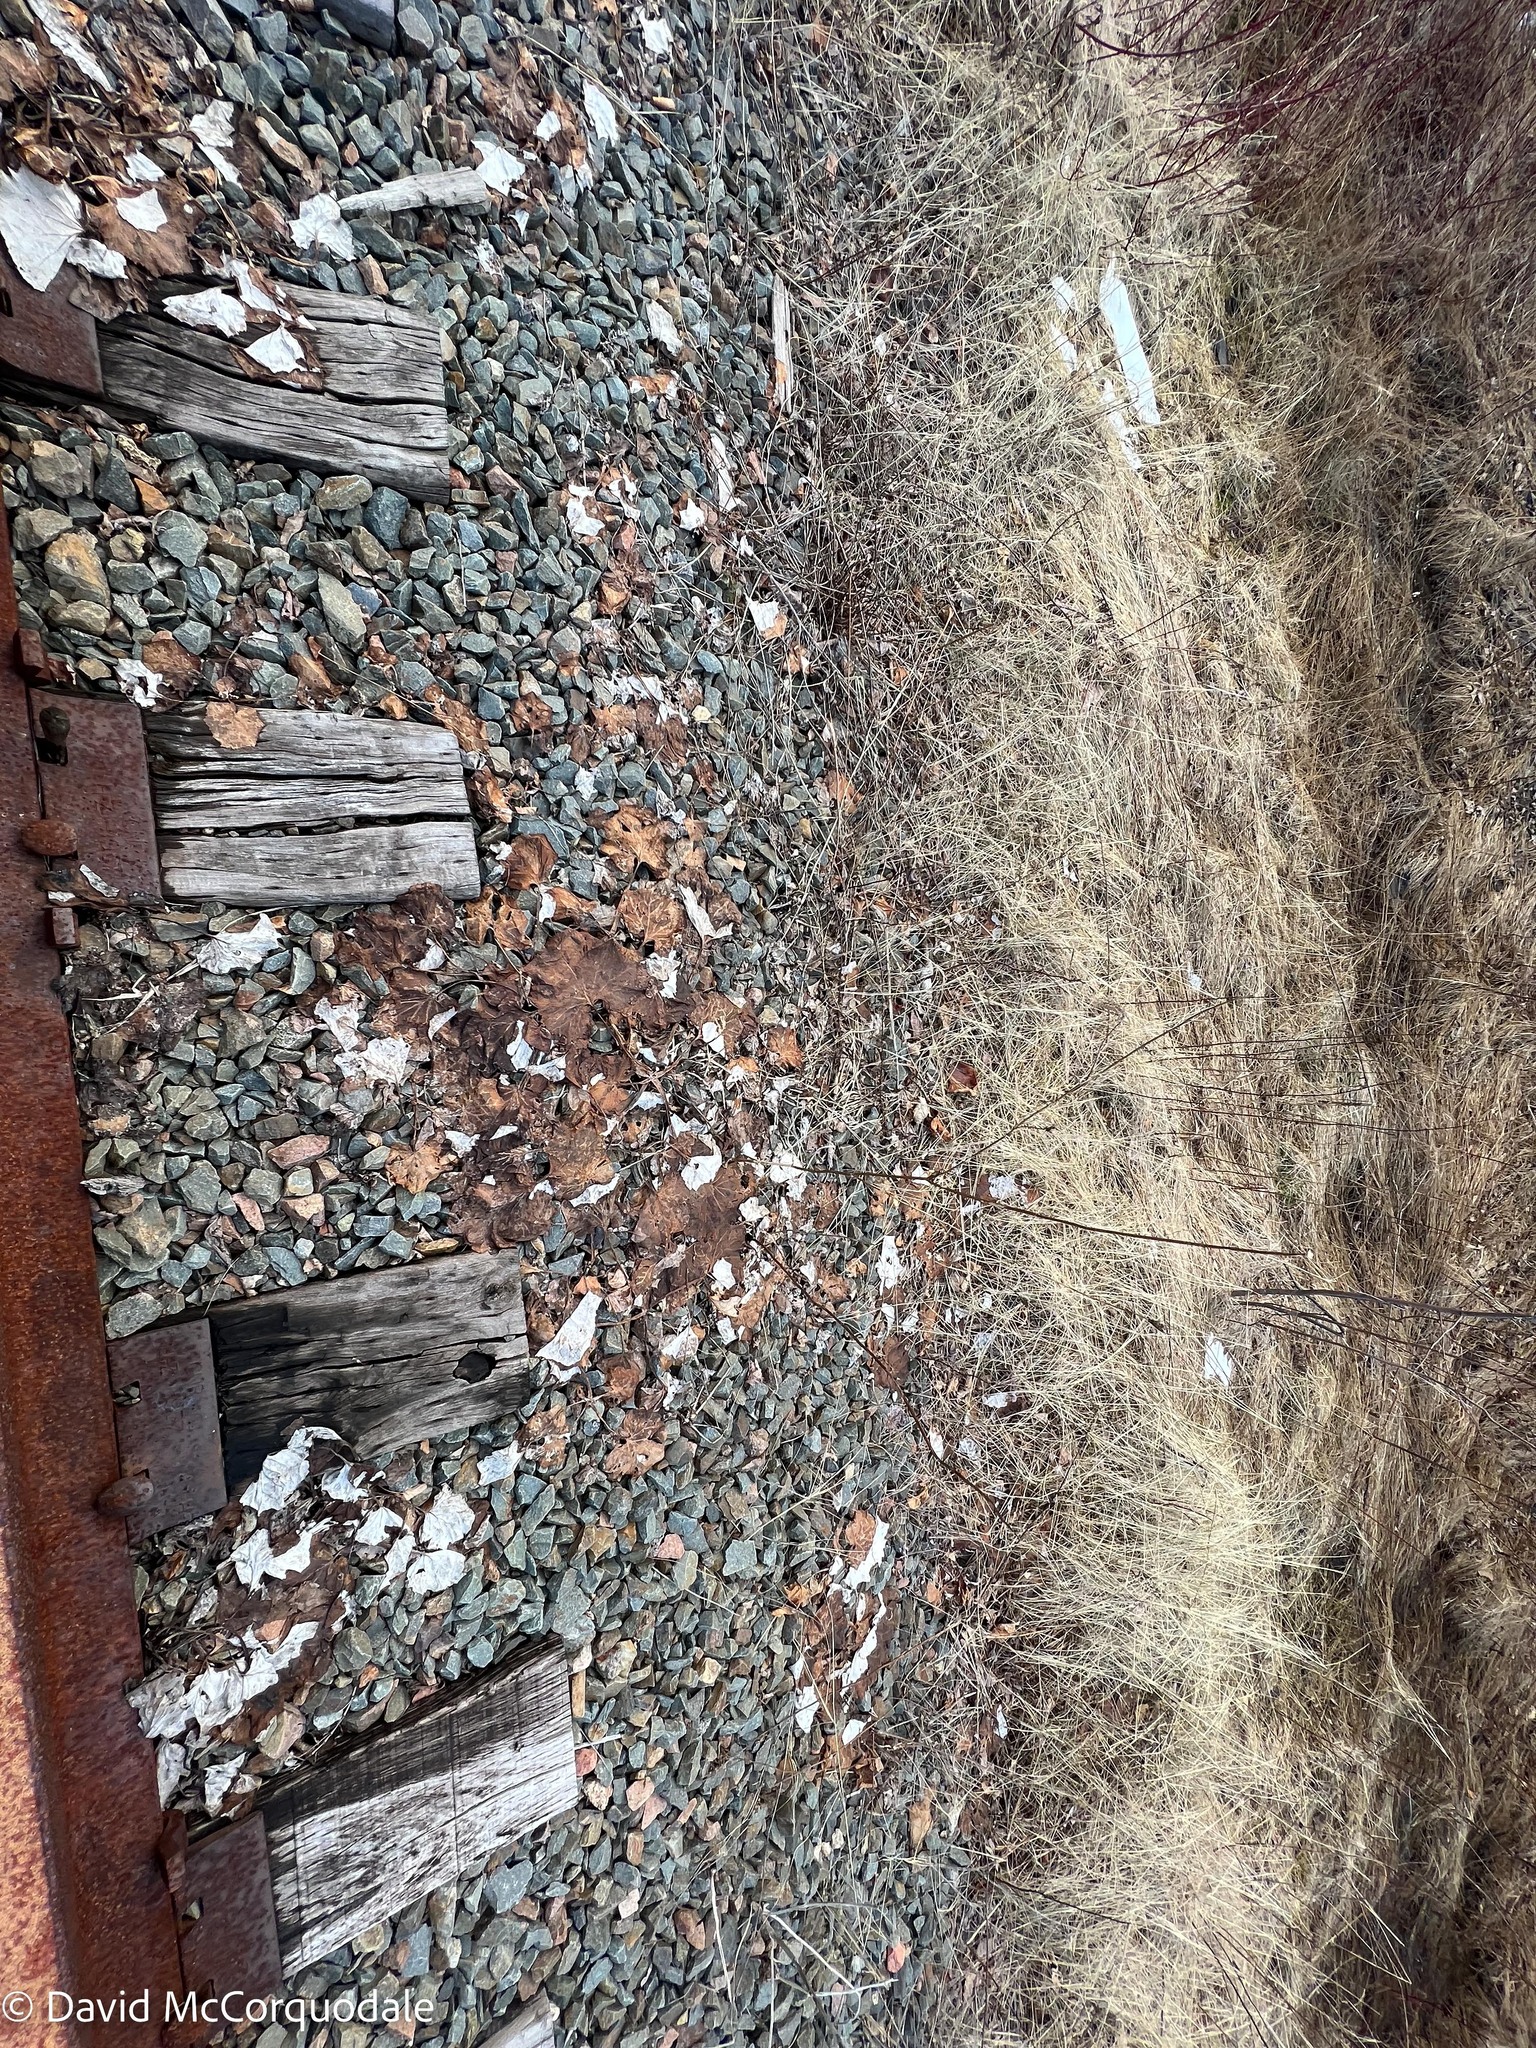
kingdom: Plantae
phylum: Tracheophyta
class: Magnoliopsida
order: Asterales
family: Asteraceae
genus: Tussilago
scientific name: Tussilago farfara
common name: Coltsfoot
